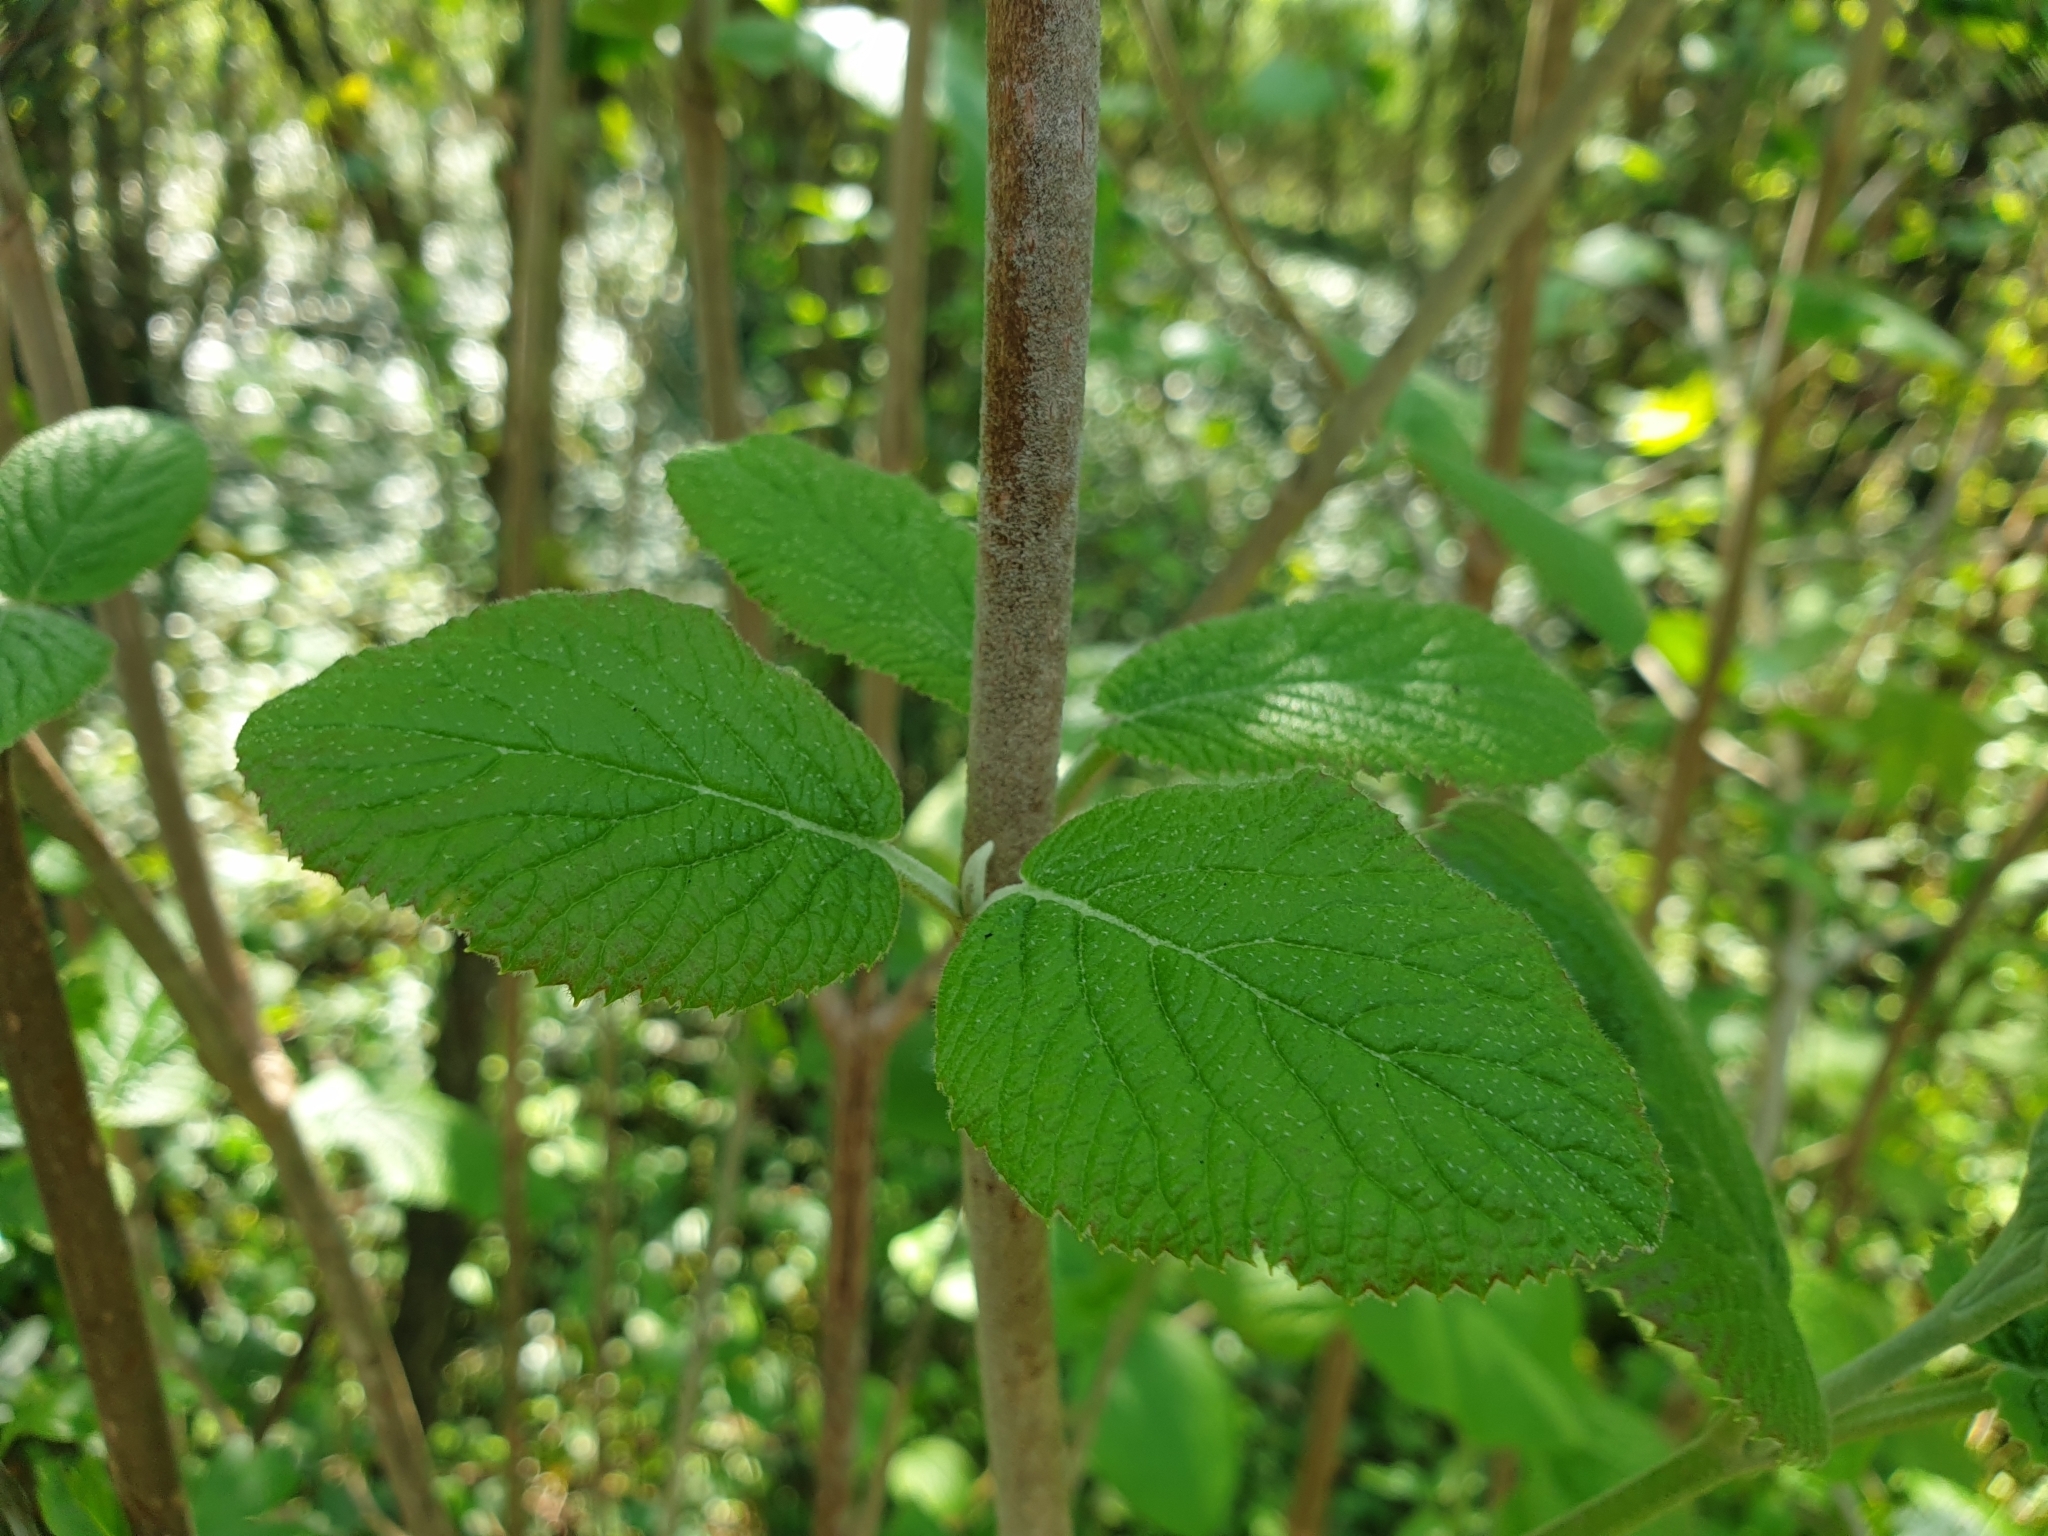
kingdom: Plantae
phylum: Tracheophyta
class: Magnoliopsida
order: Dipsacales
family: Viburnaceae
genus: Viburnum
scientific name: Viburnum lantana
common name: Wayfaring tree
